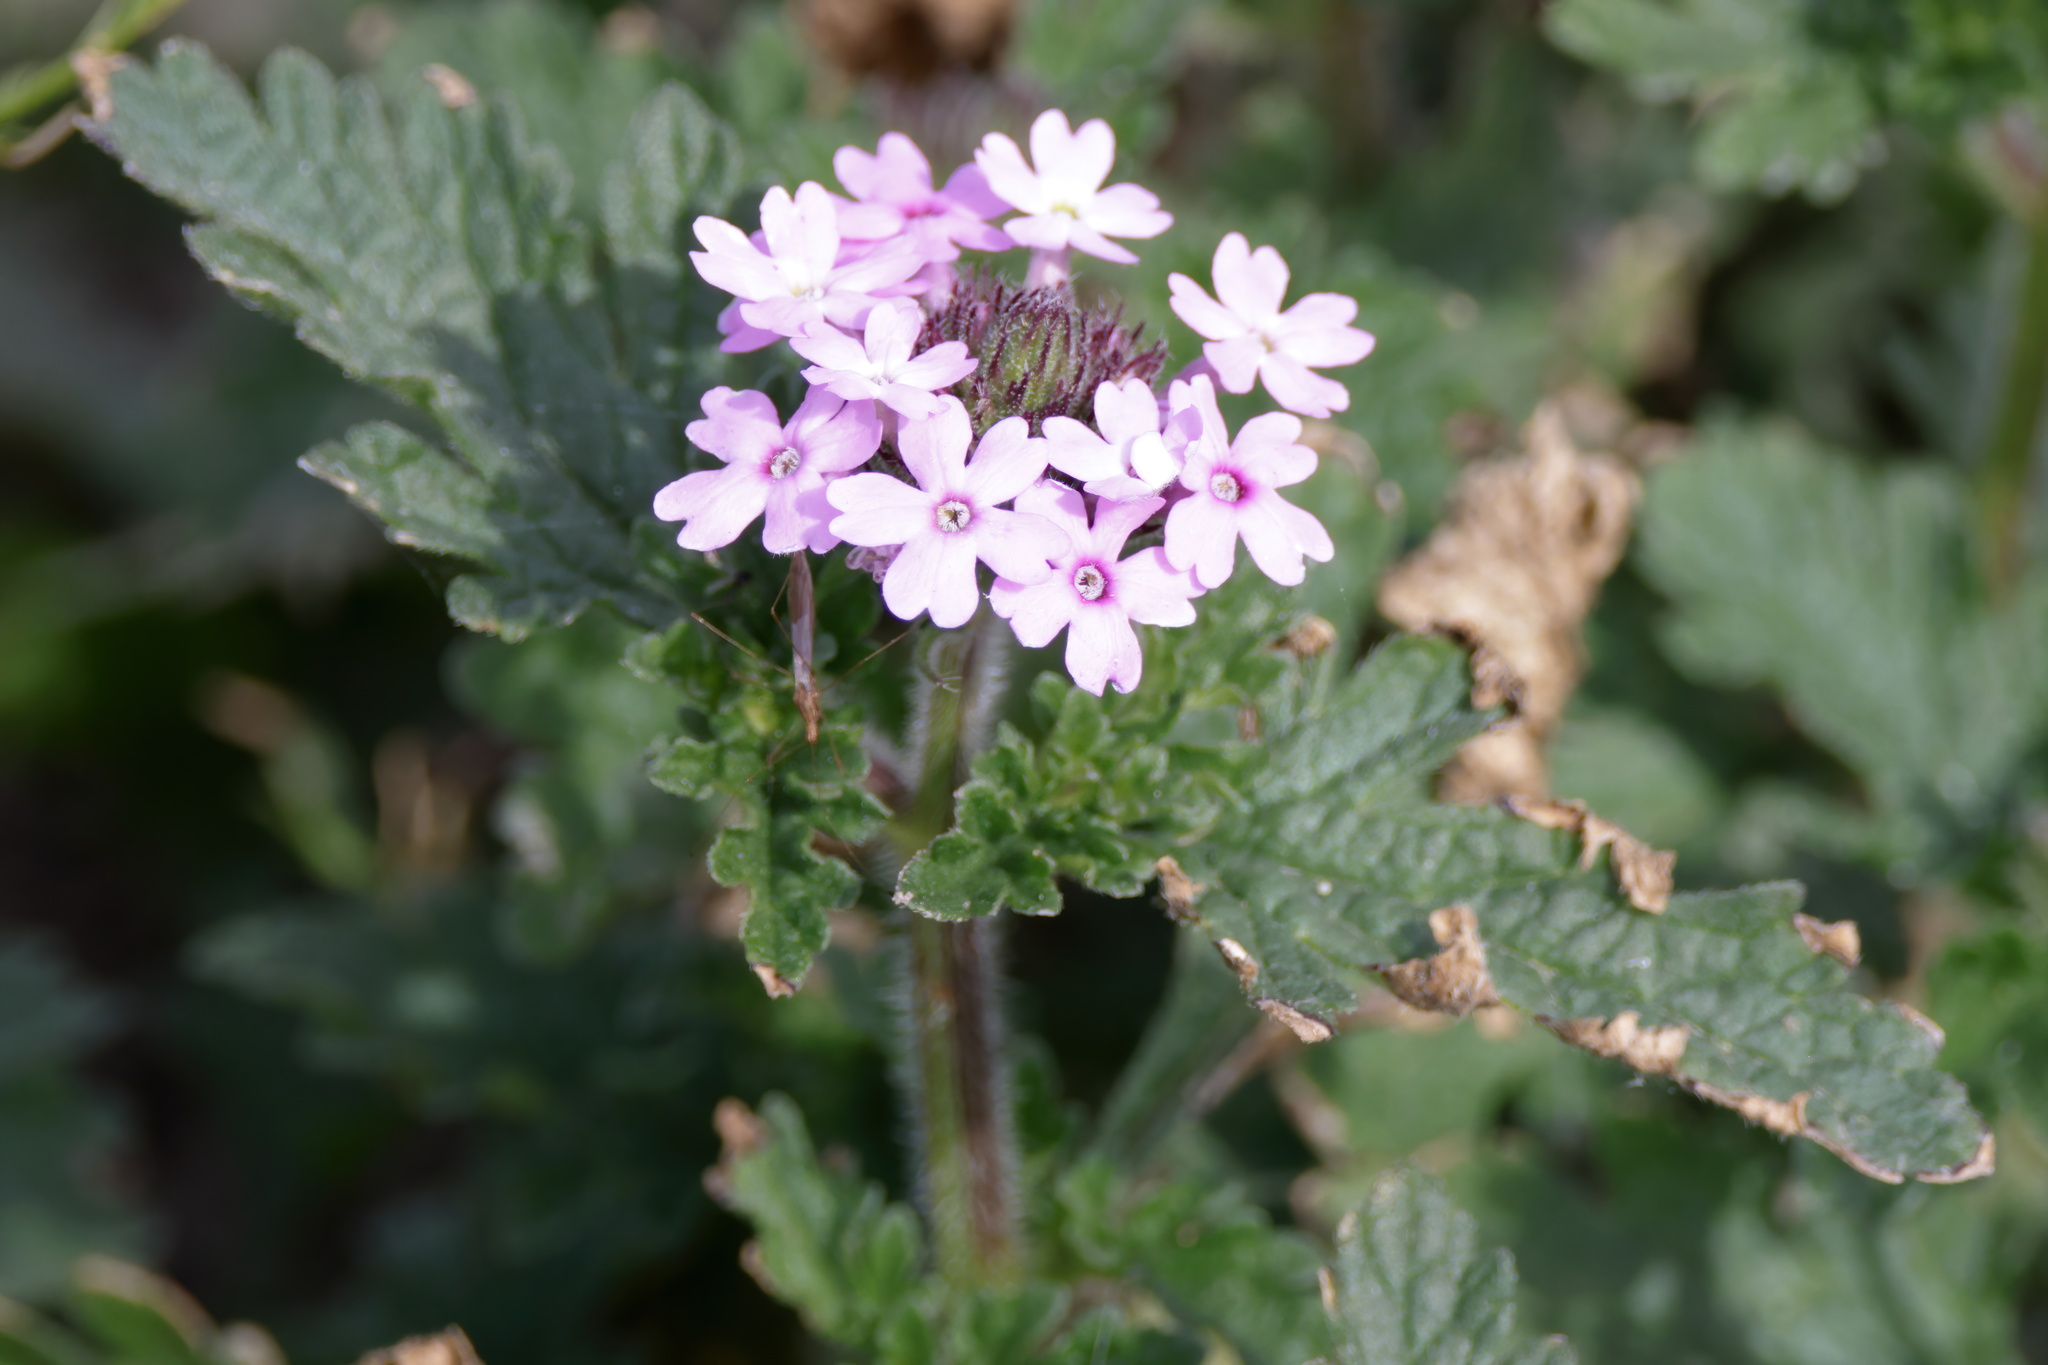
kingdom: Plantae
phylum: Tracheophyta
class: Magnoliopsida
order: Lamiales
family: Verbenaceae
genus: Verbena
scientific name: Verbena pumila
